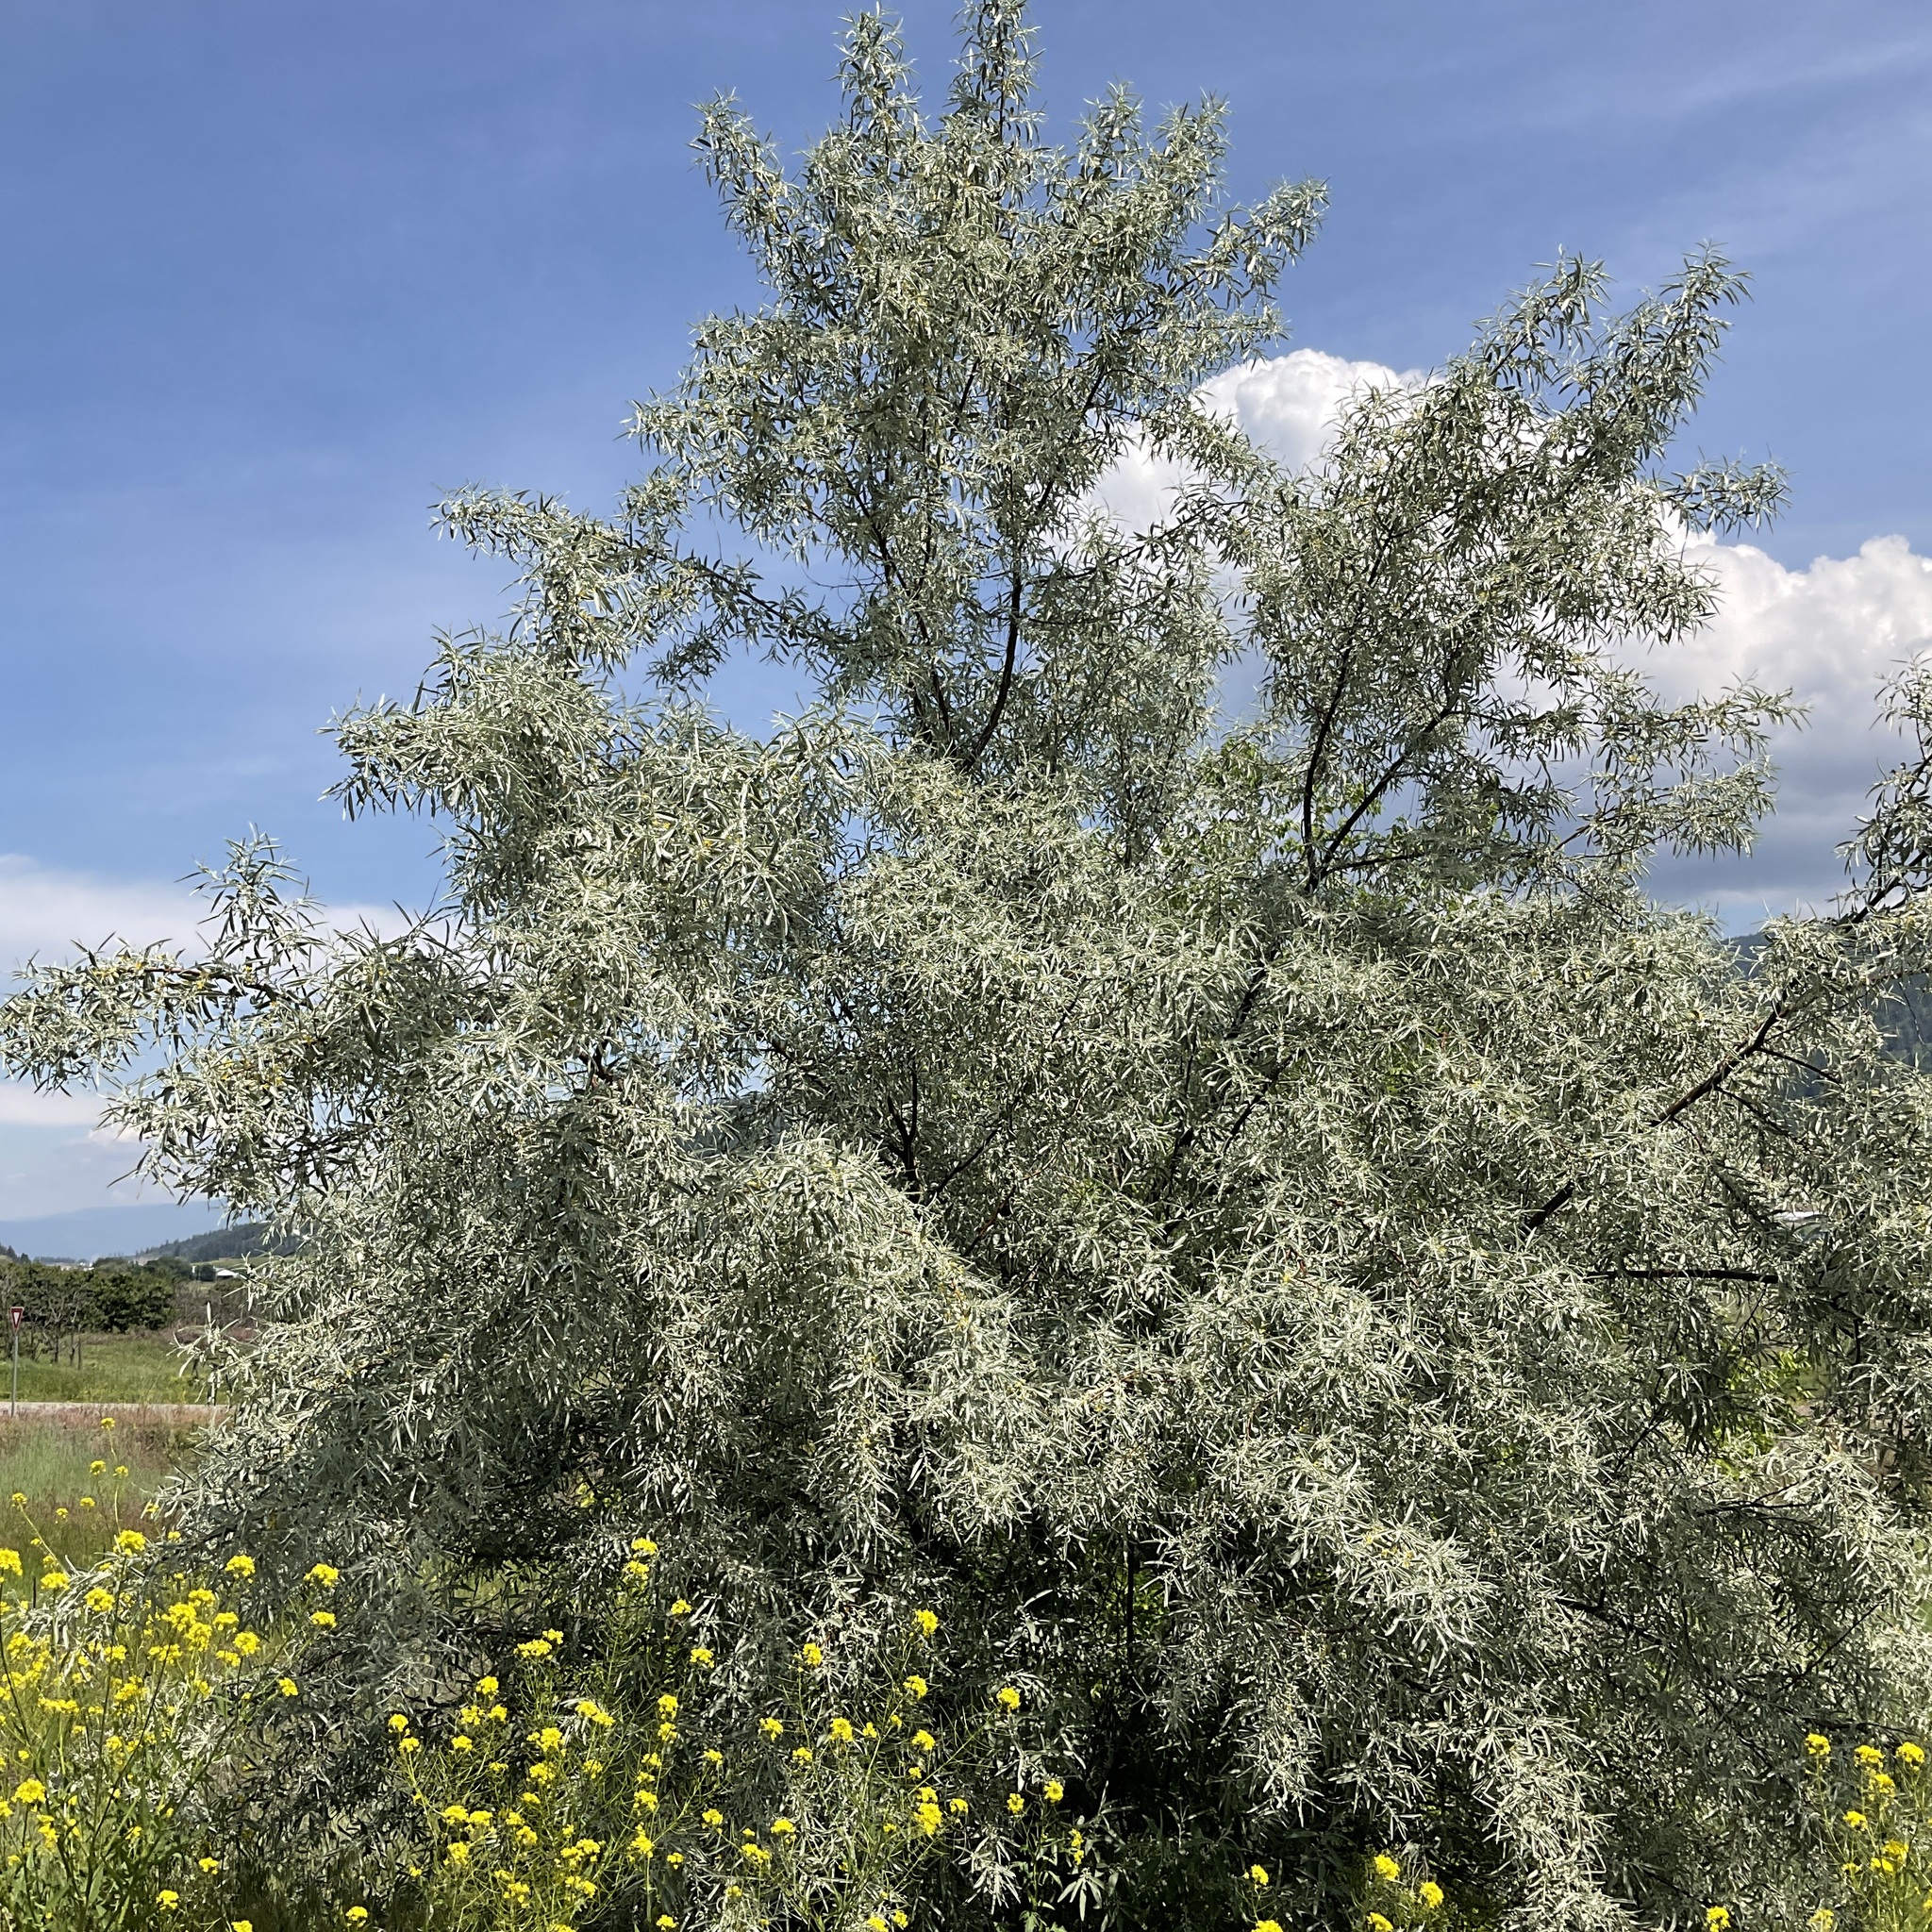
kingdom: Plantae
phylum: Tracheophyta
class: Magnoliopsida
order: Rosales
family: Elaeagnaceae
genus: Elaeagnus
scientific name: Elaeagnus angustifolia
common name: Russian olive
